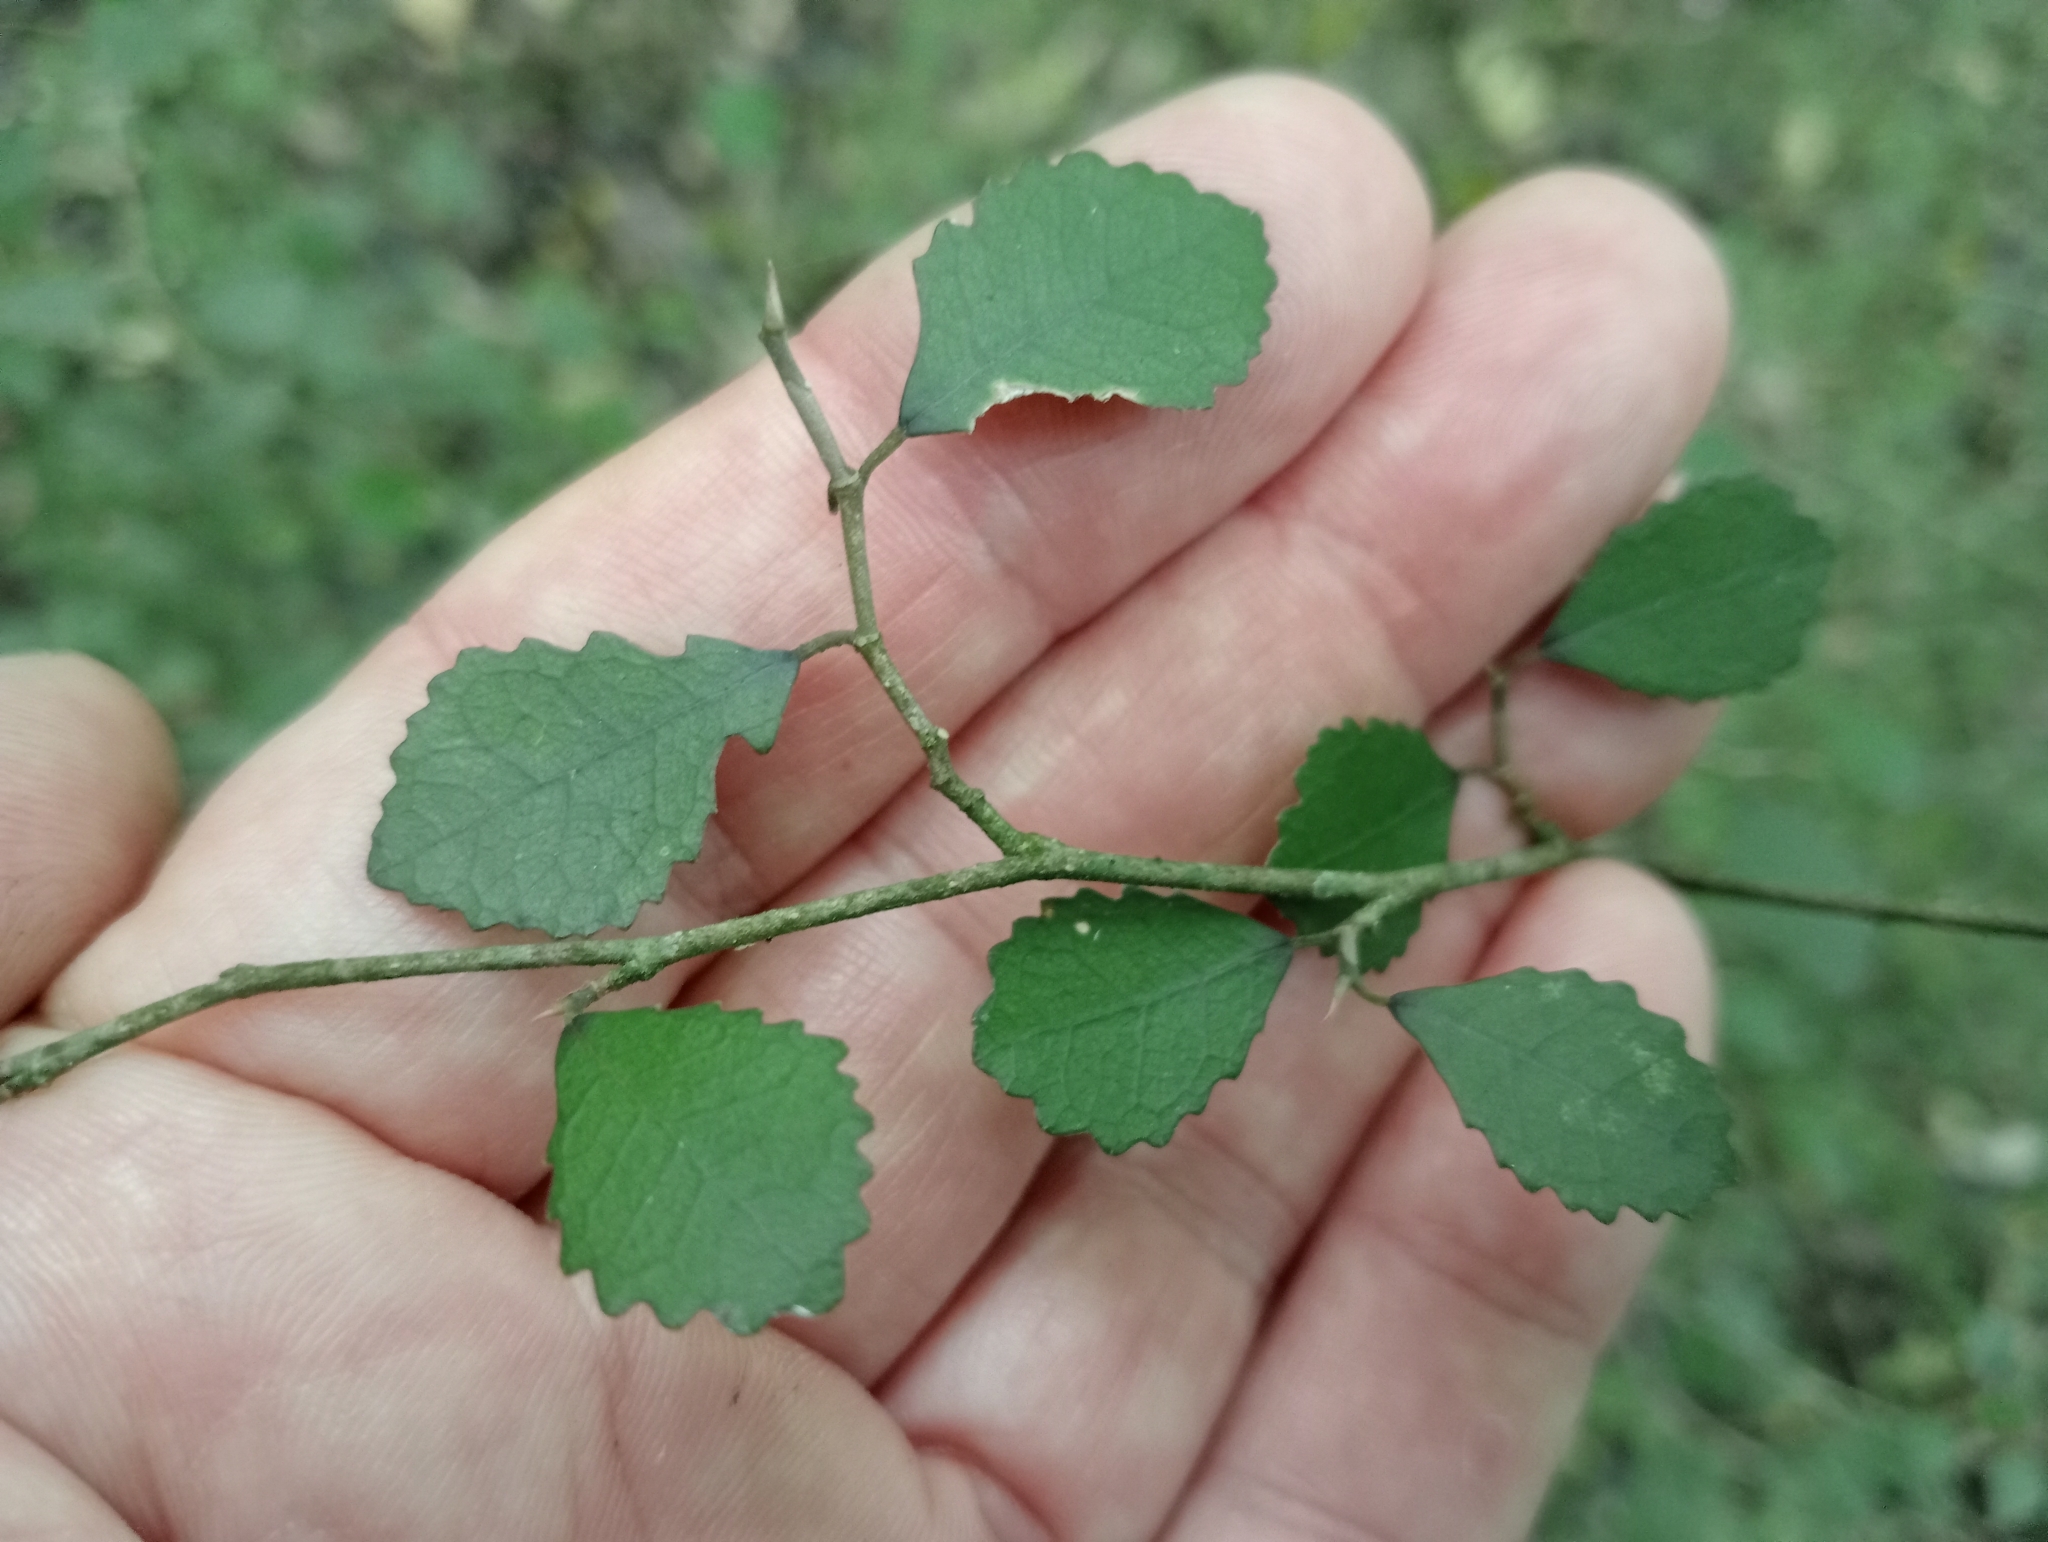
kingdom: Plantae
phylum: Tracheophyta
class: Magnoliopsida
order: Rosales
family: Moraceae
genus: Paratrophis
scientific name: Paratrophis microphylla
